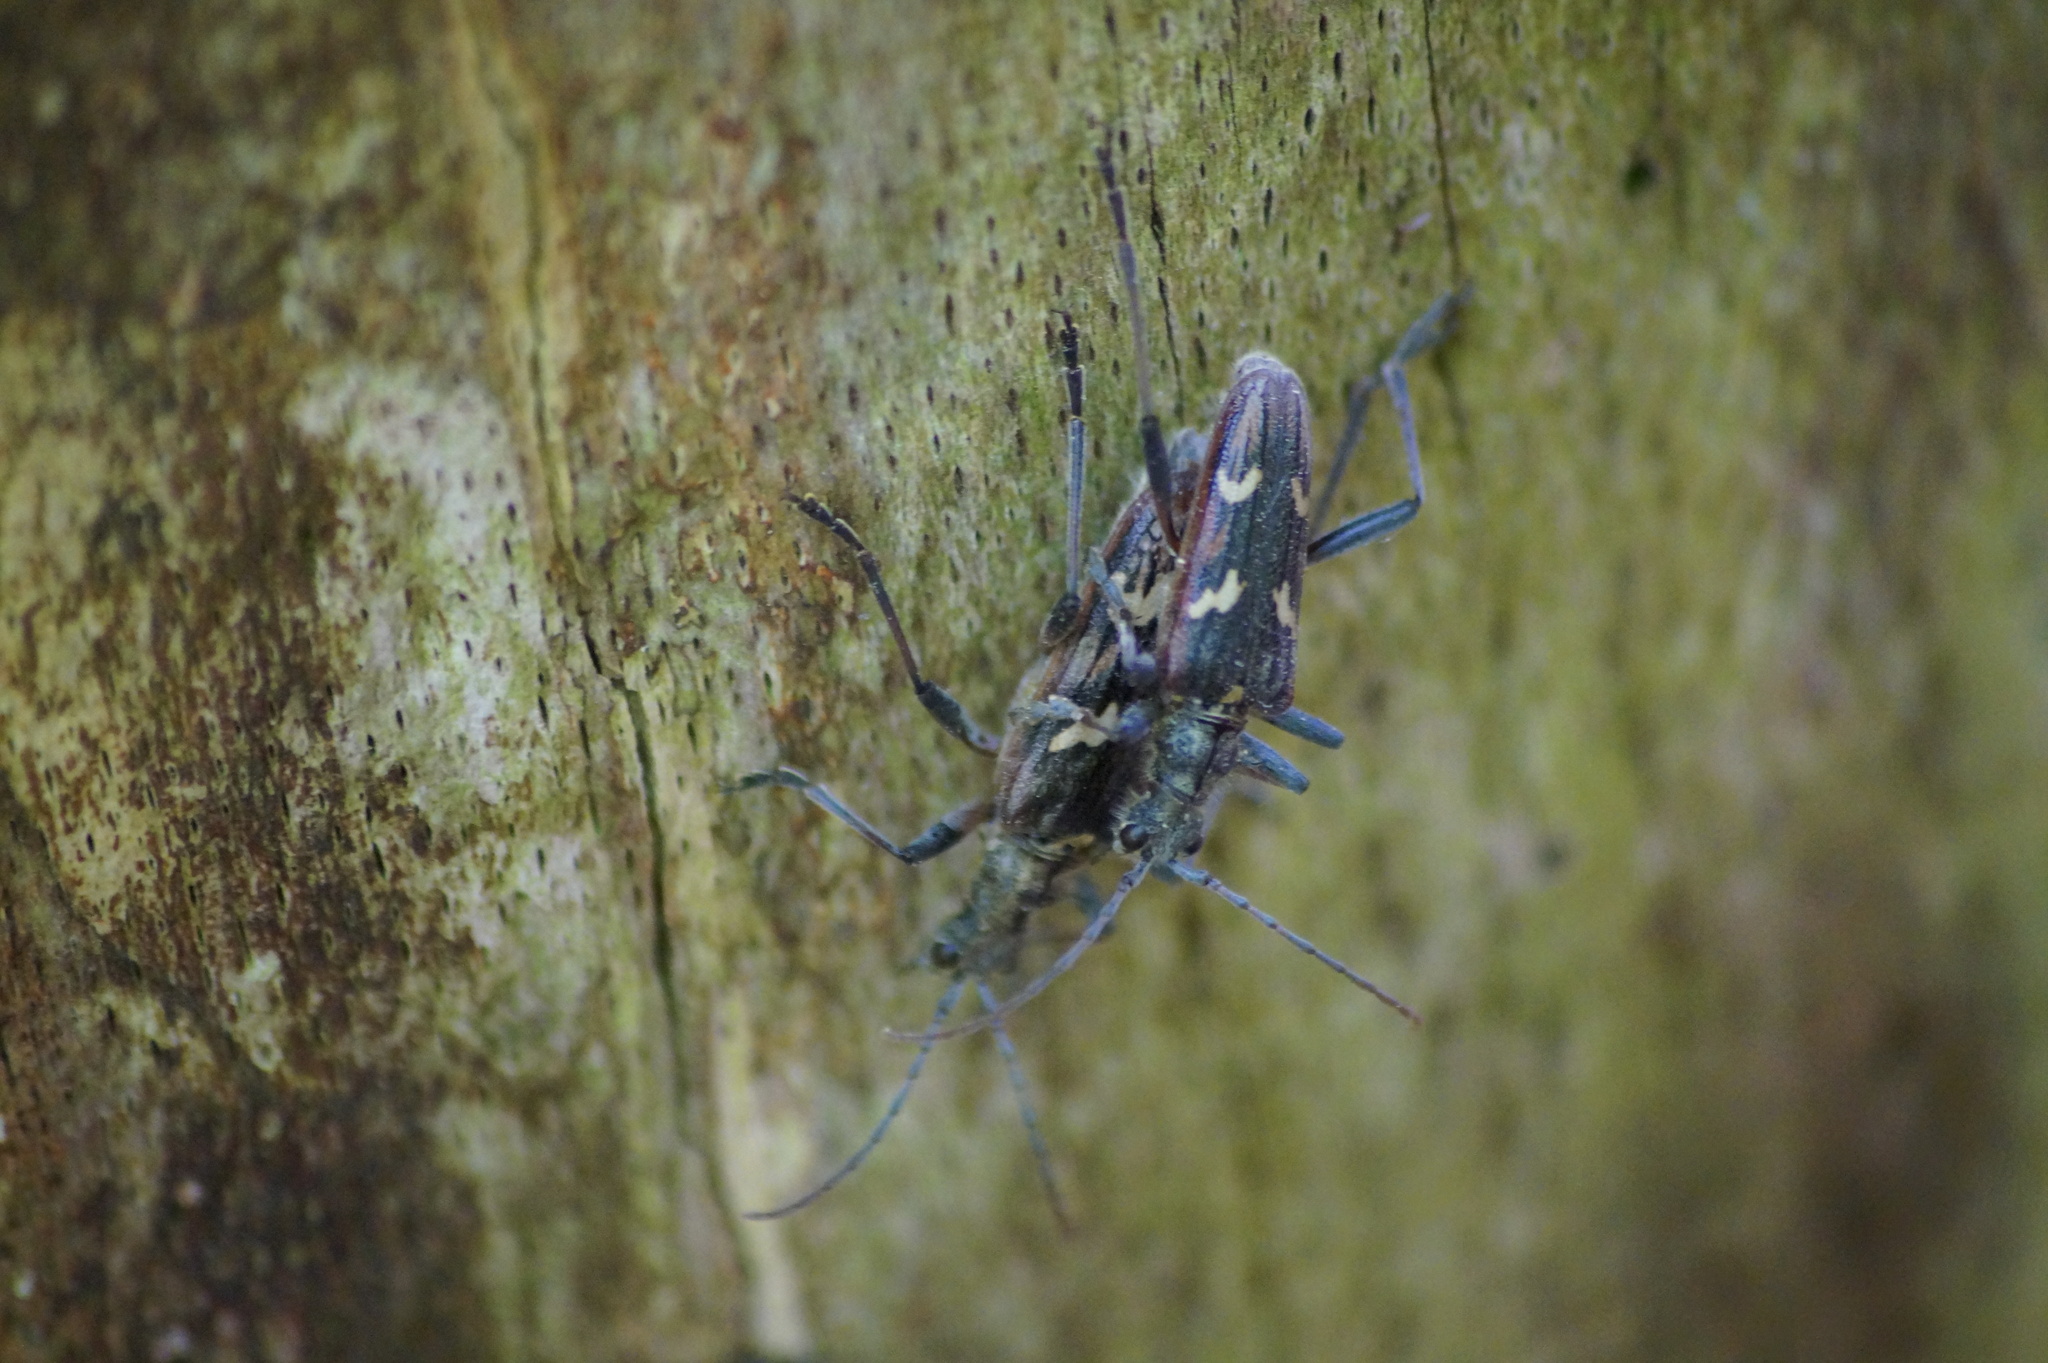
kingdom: Animalia
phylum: Arthropoda
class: Insecta
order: Coleoptera
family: Cerambycidae
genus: Rhagium
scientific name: Rhagium bifasciatum
